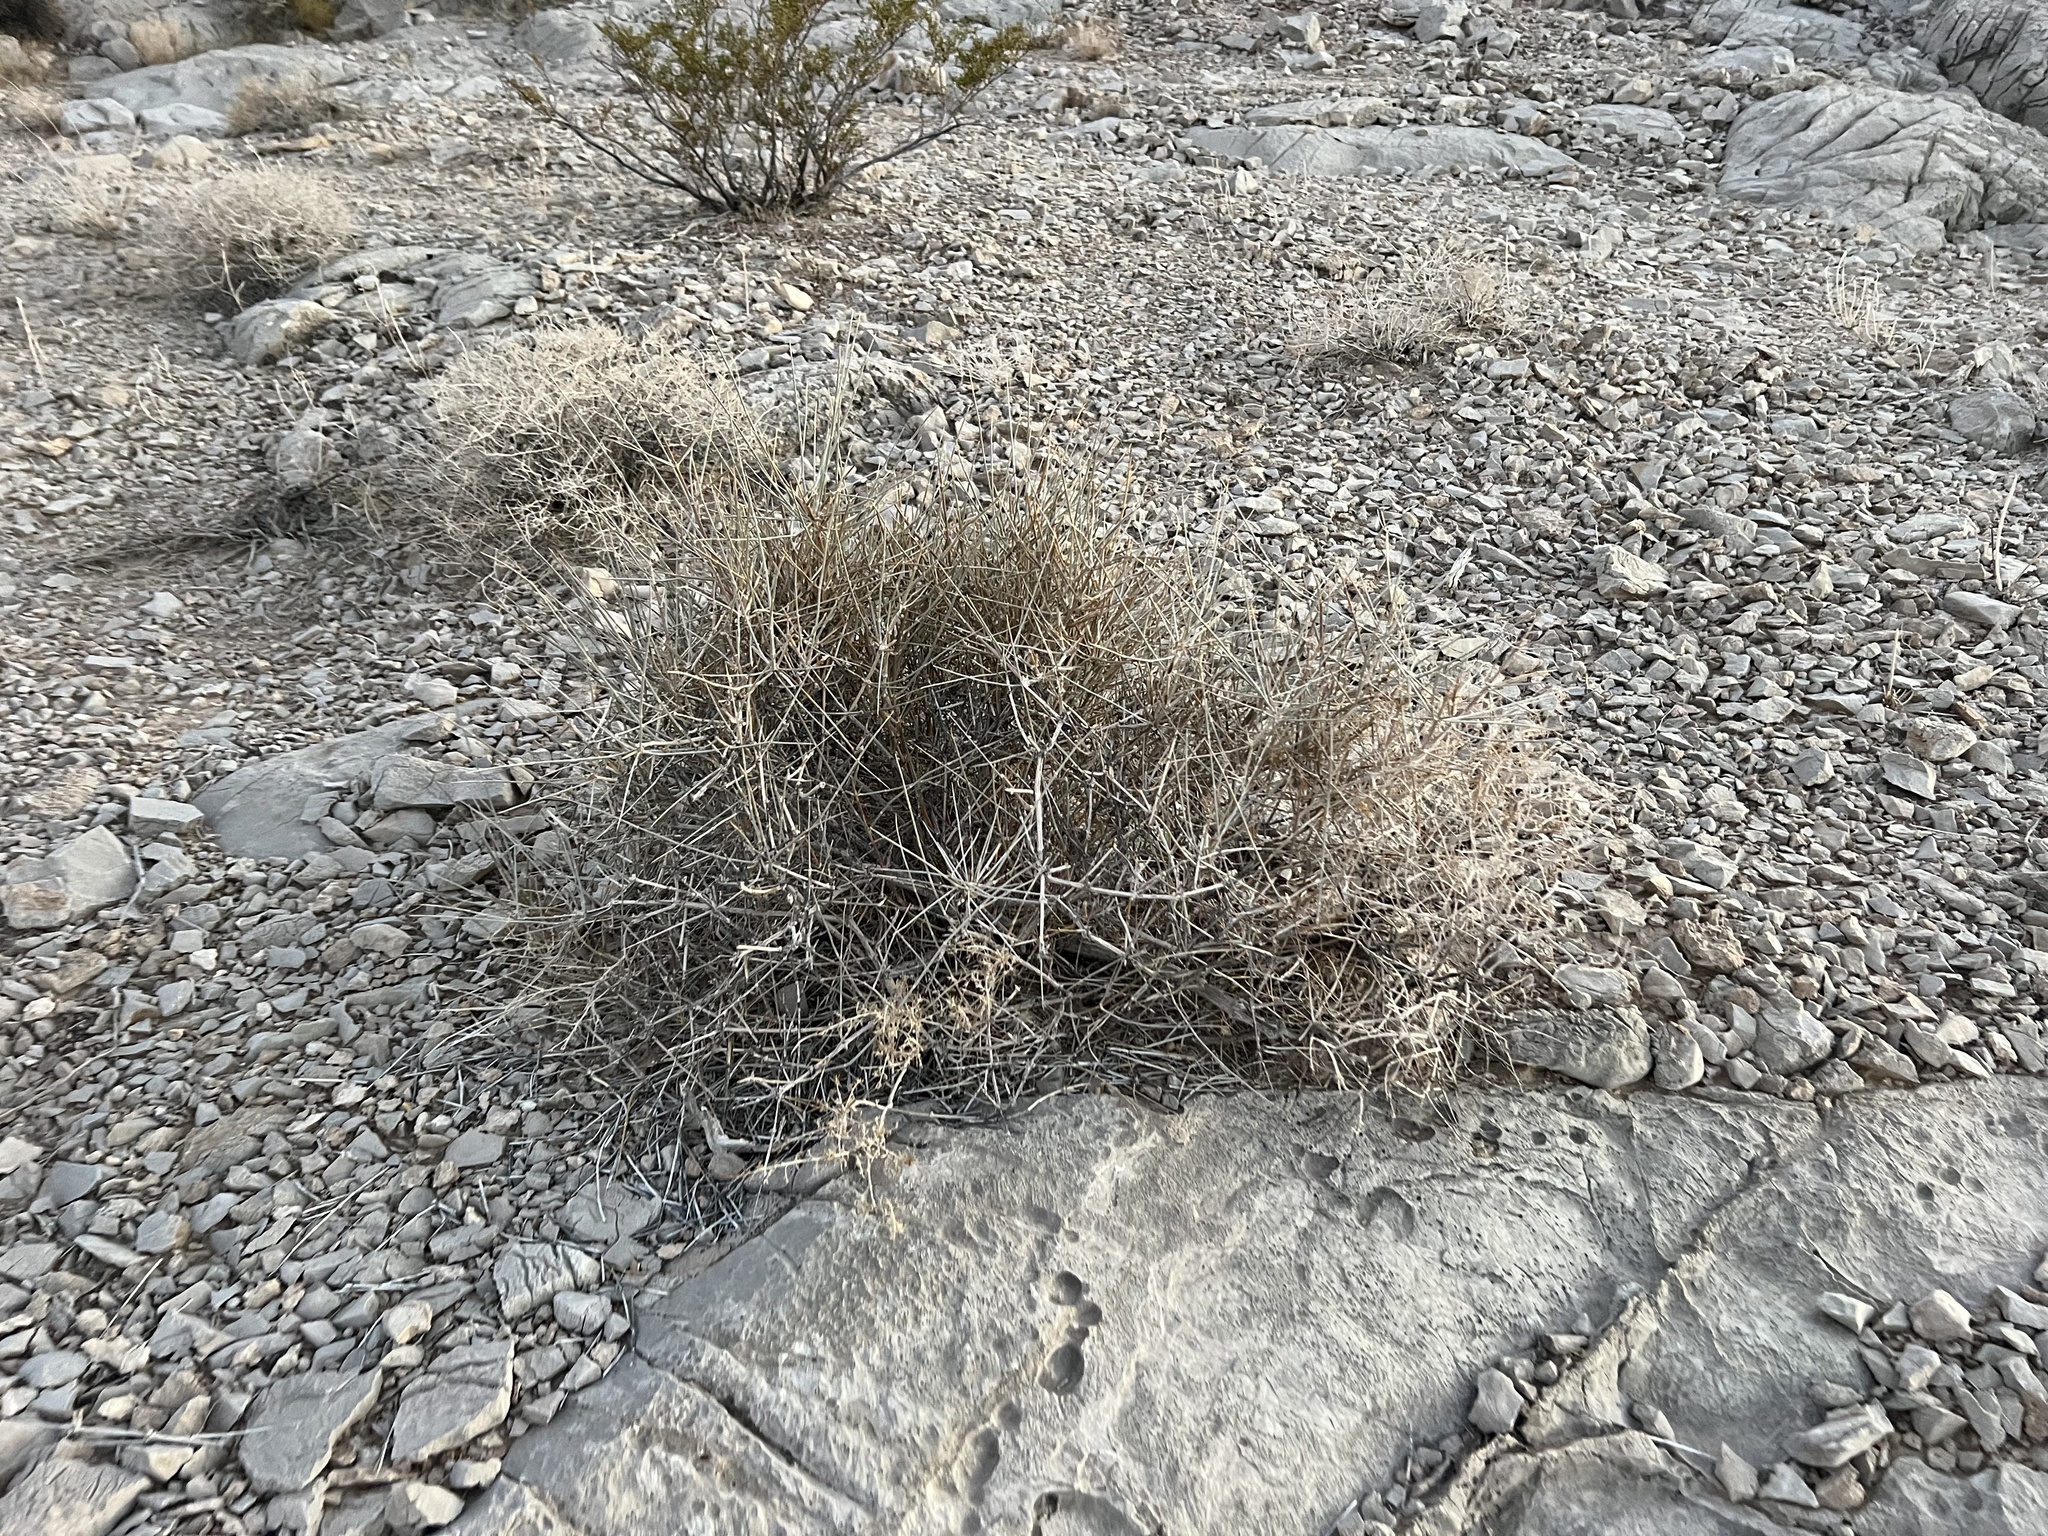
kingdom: Plantae
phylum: Tracheophyta
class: Gnetopsida
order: Ephedrales
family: Ephedraceae
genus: Ephedra
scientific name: Ephedra nevadensis
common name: Gray ephedra
